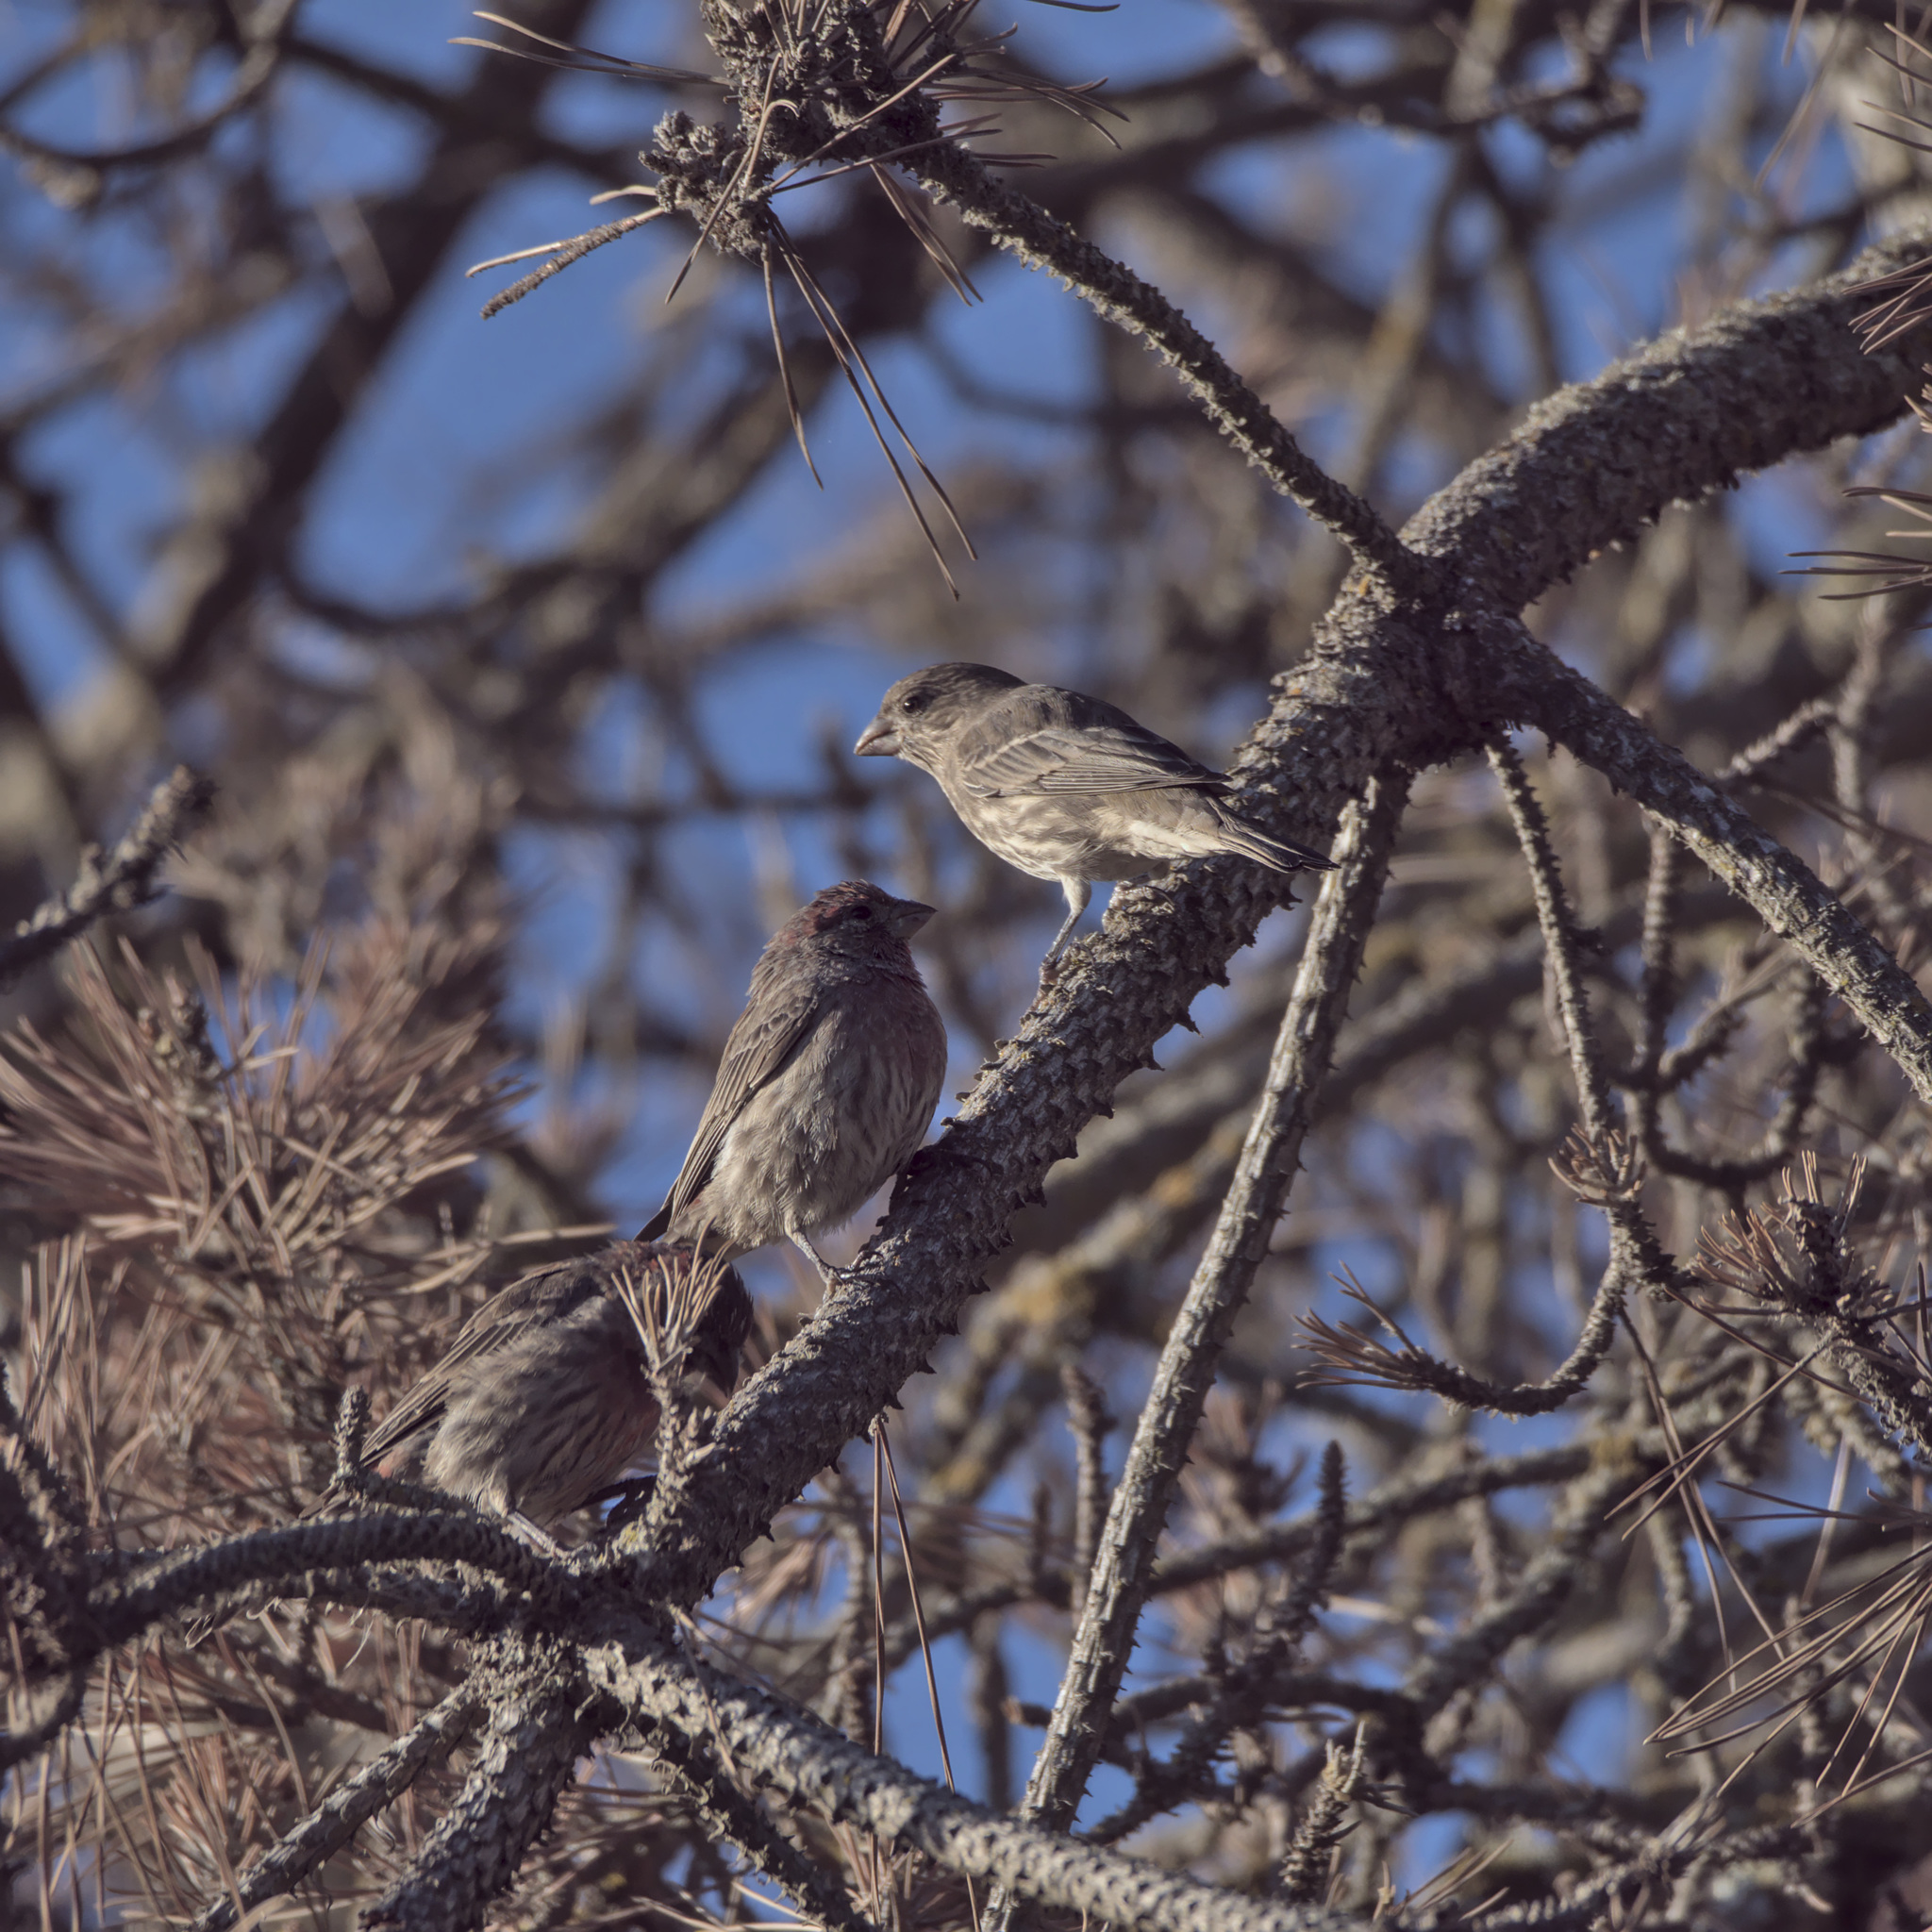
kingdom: Animalia
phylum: Chordata
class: Aves
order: Passeriformes
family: Fringillidae
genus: Haemorhous
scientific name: Haemorhous mexicanus
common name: House finch
